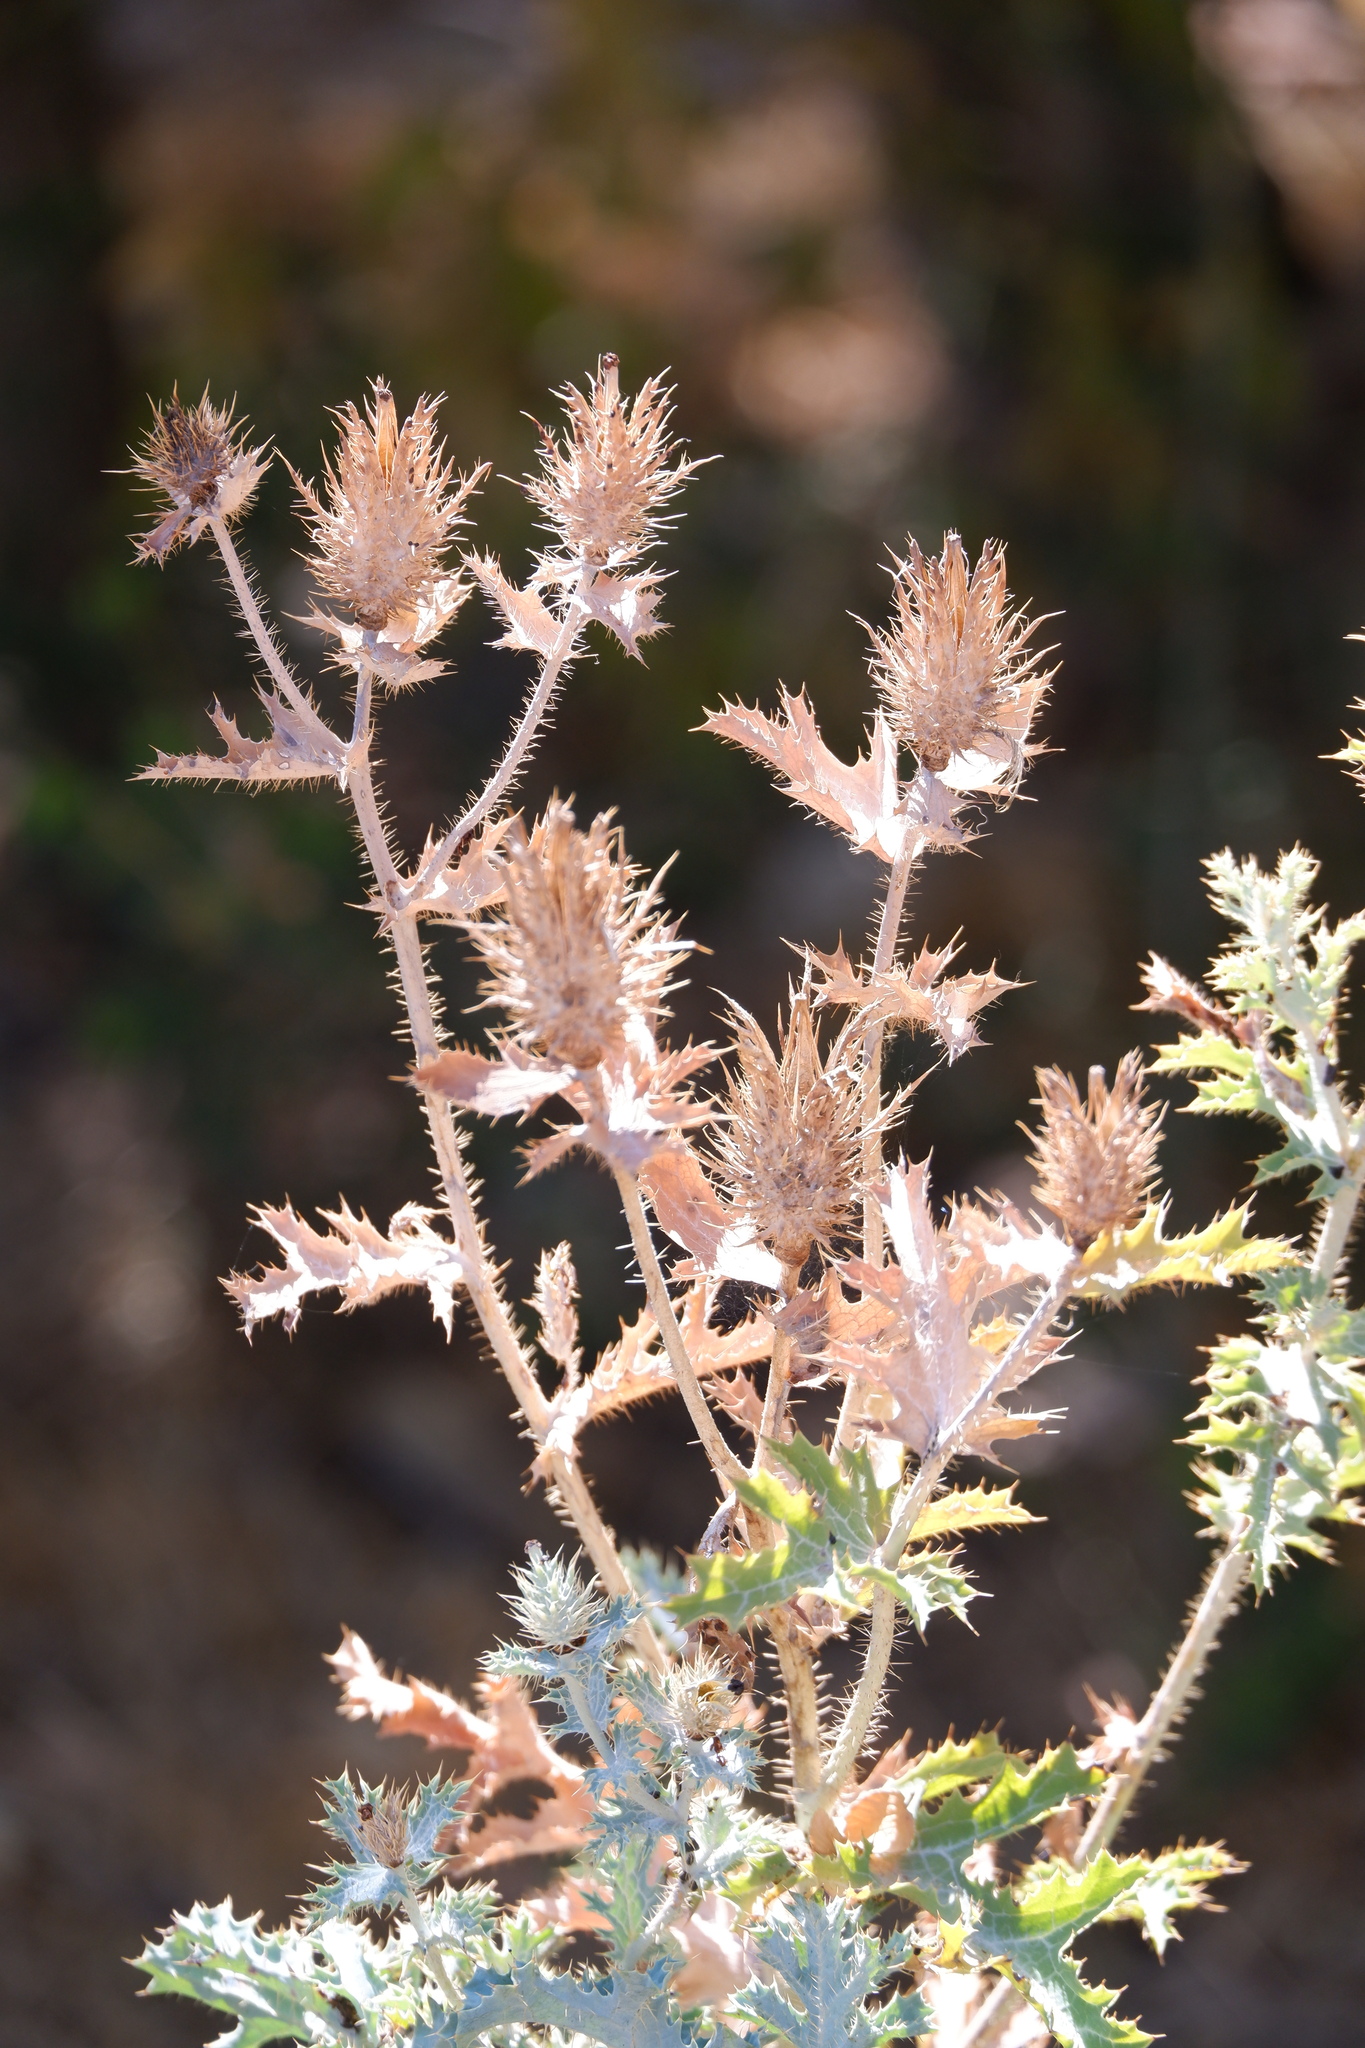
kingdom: Plantae
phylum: Tracheophyta
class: Magnoliopsida
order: Ranunculales
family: Papaveraceae
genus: Argemone
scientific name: Argemone albiflora
